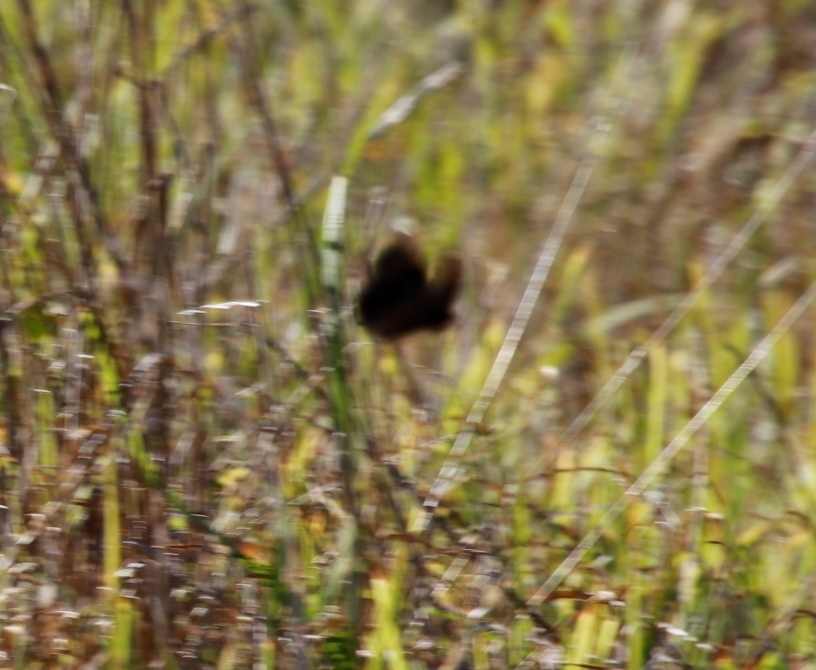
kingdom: Animalia
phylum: Arthropoda
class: Insecta
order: Lepidoptera
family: Nymphalidae
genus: Dira
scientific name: Dira clytus
